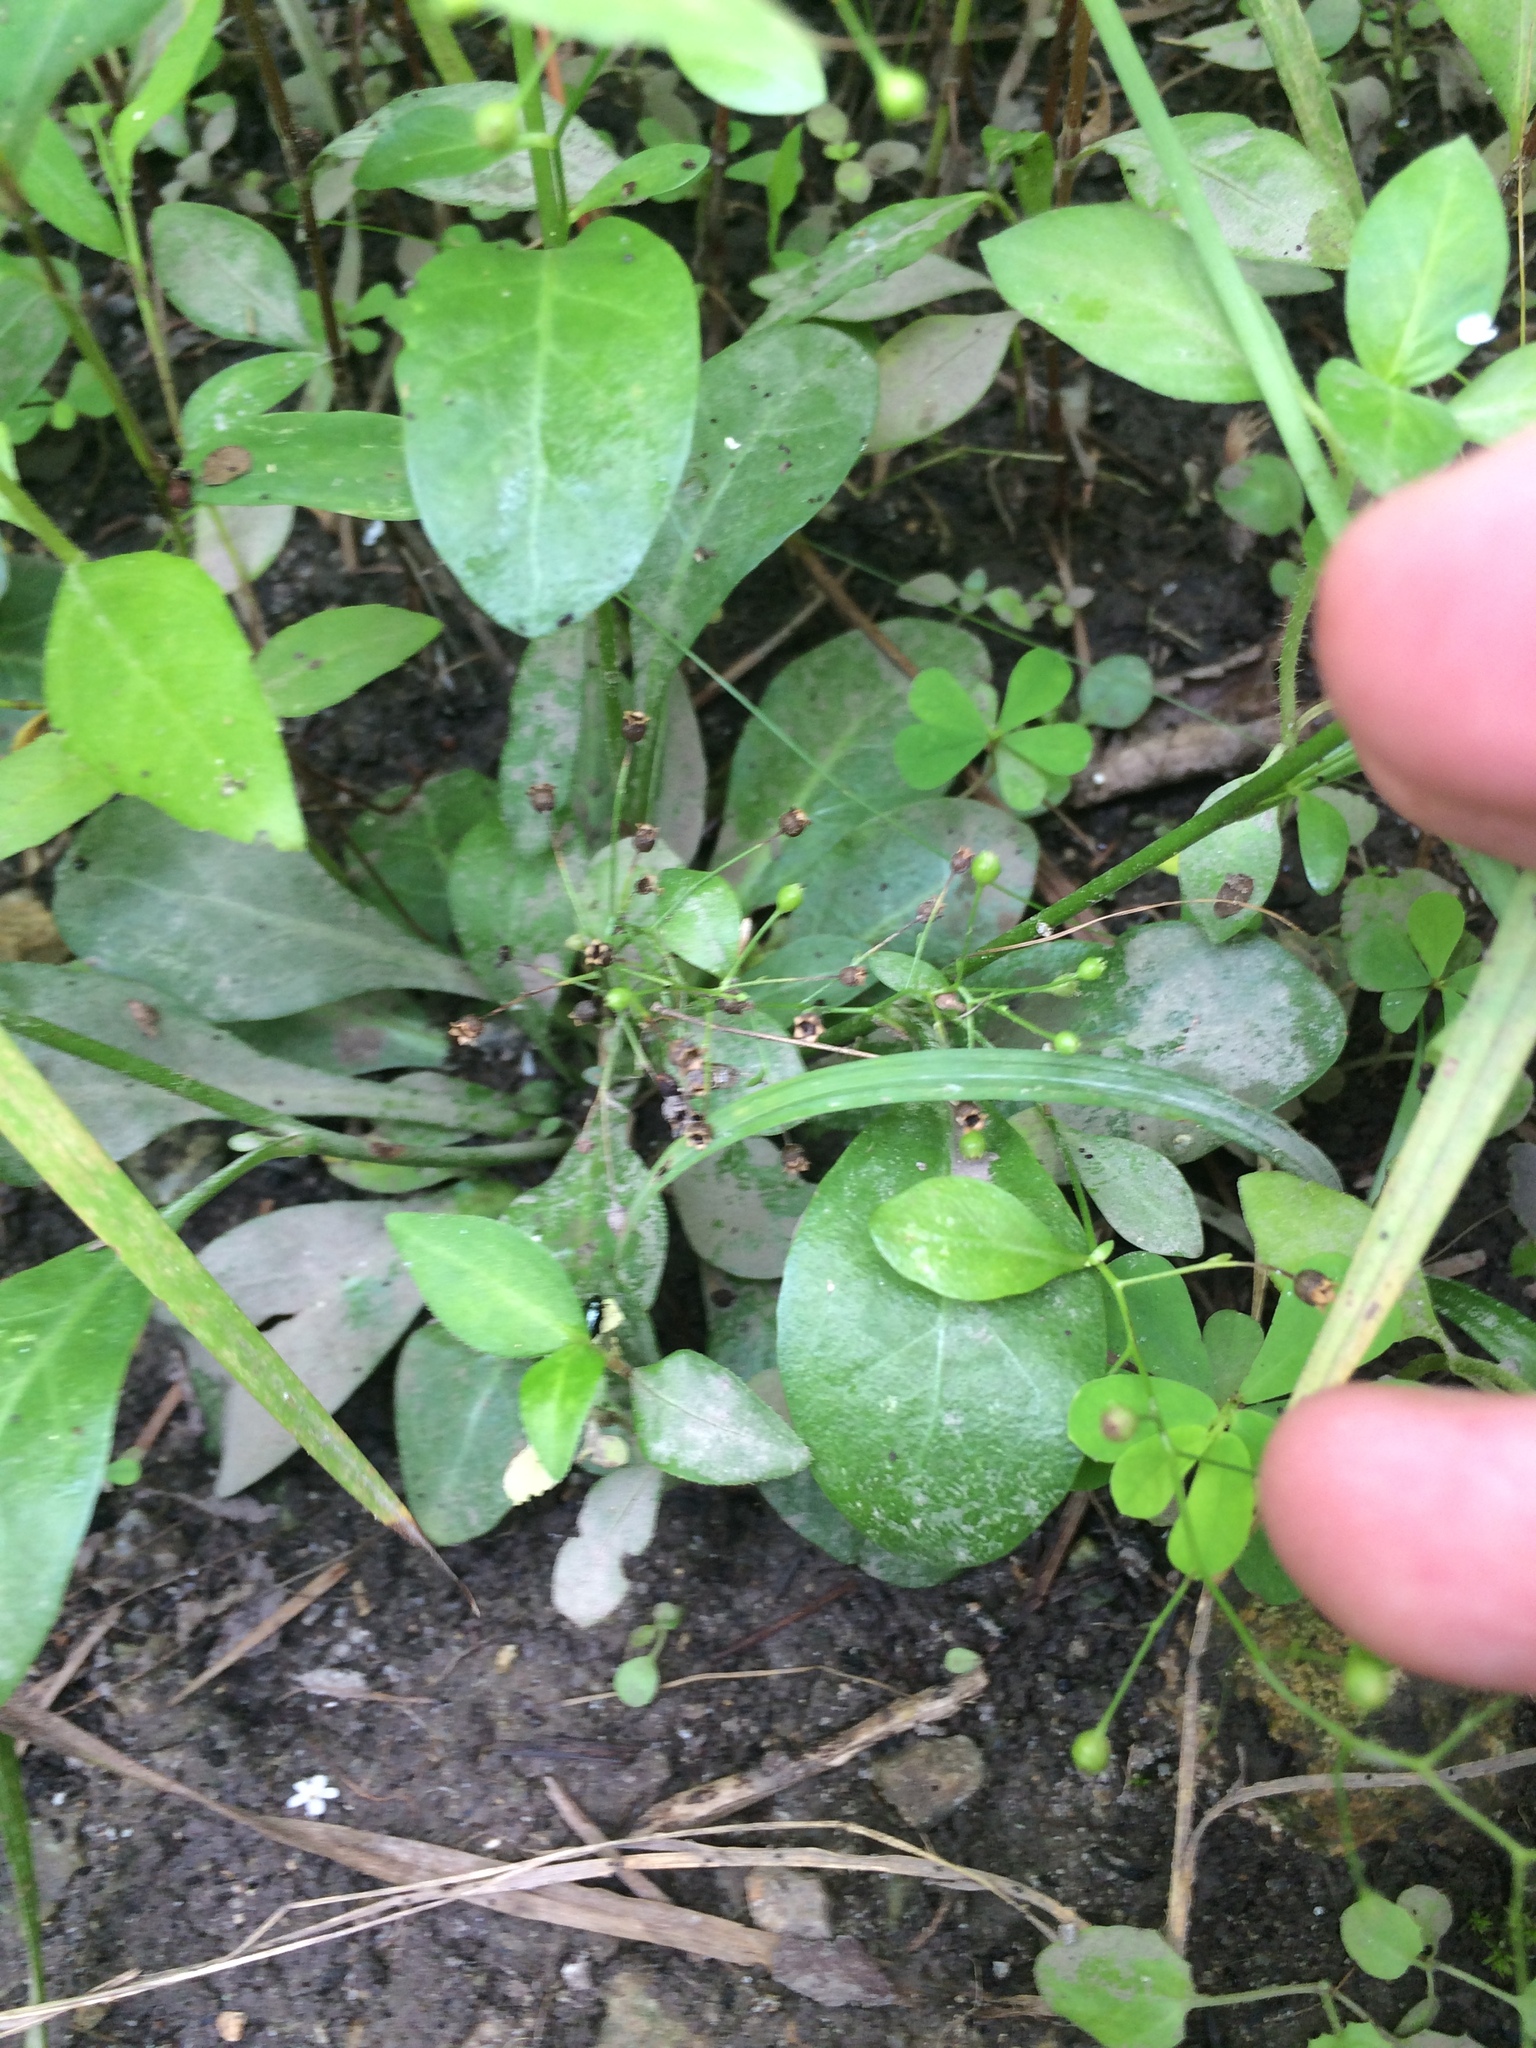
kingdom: Plantae
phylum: Tracheophyta
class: Magnoliopsida
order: Ericales
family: Primulaceae
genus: Samolus
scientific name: Samolus parviflorus
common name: False water pimpernel
